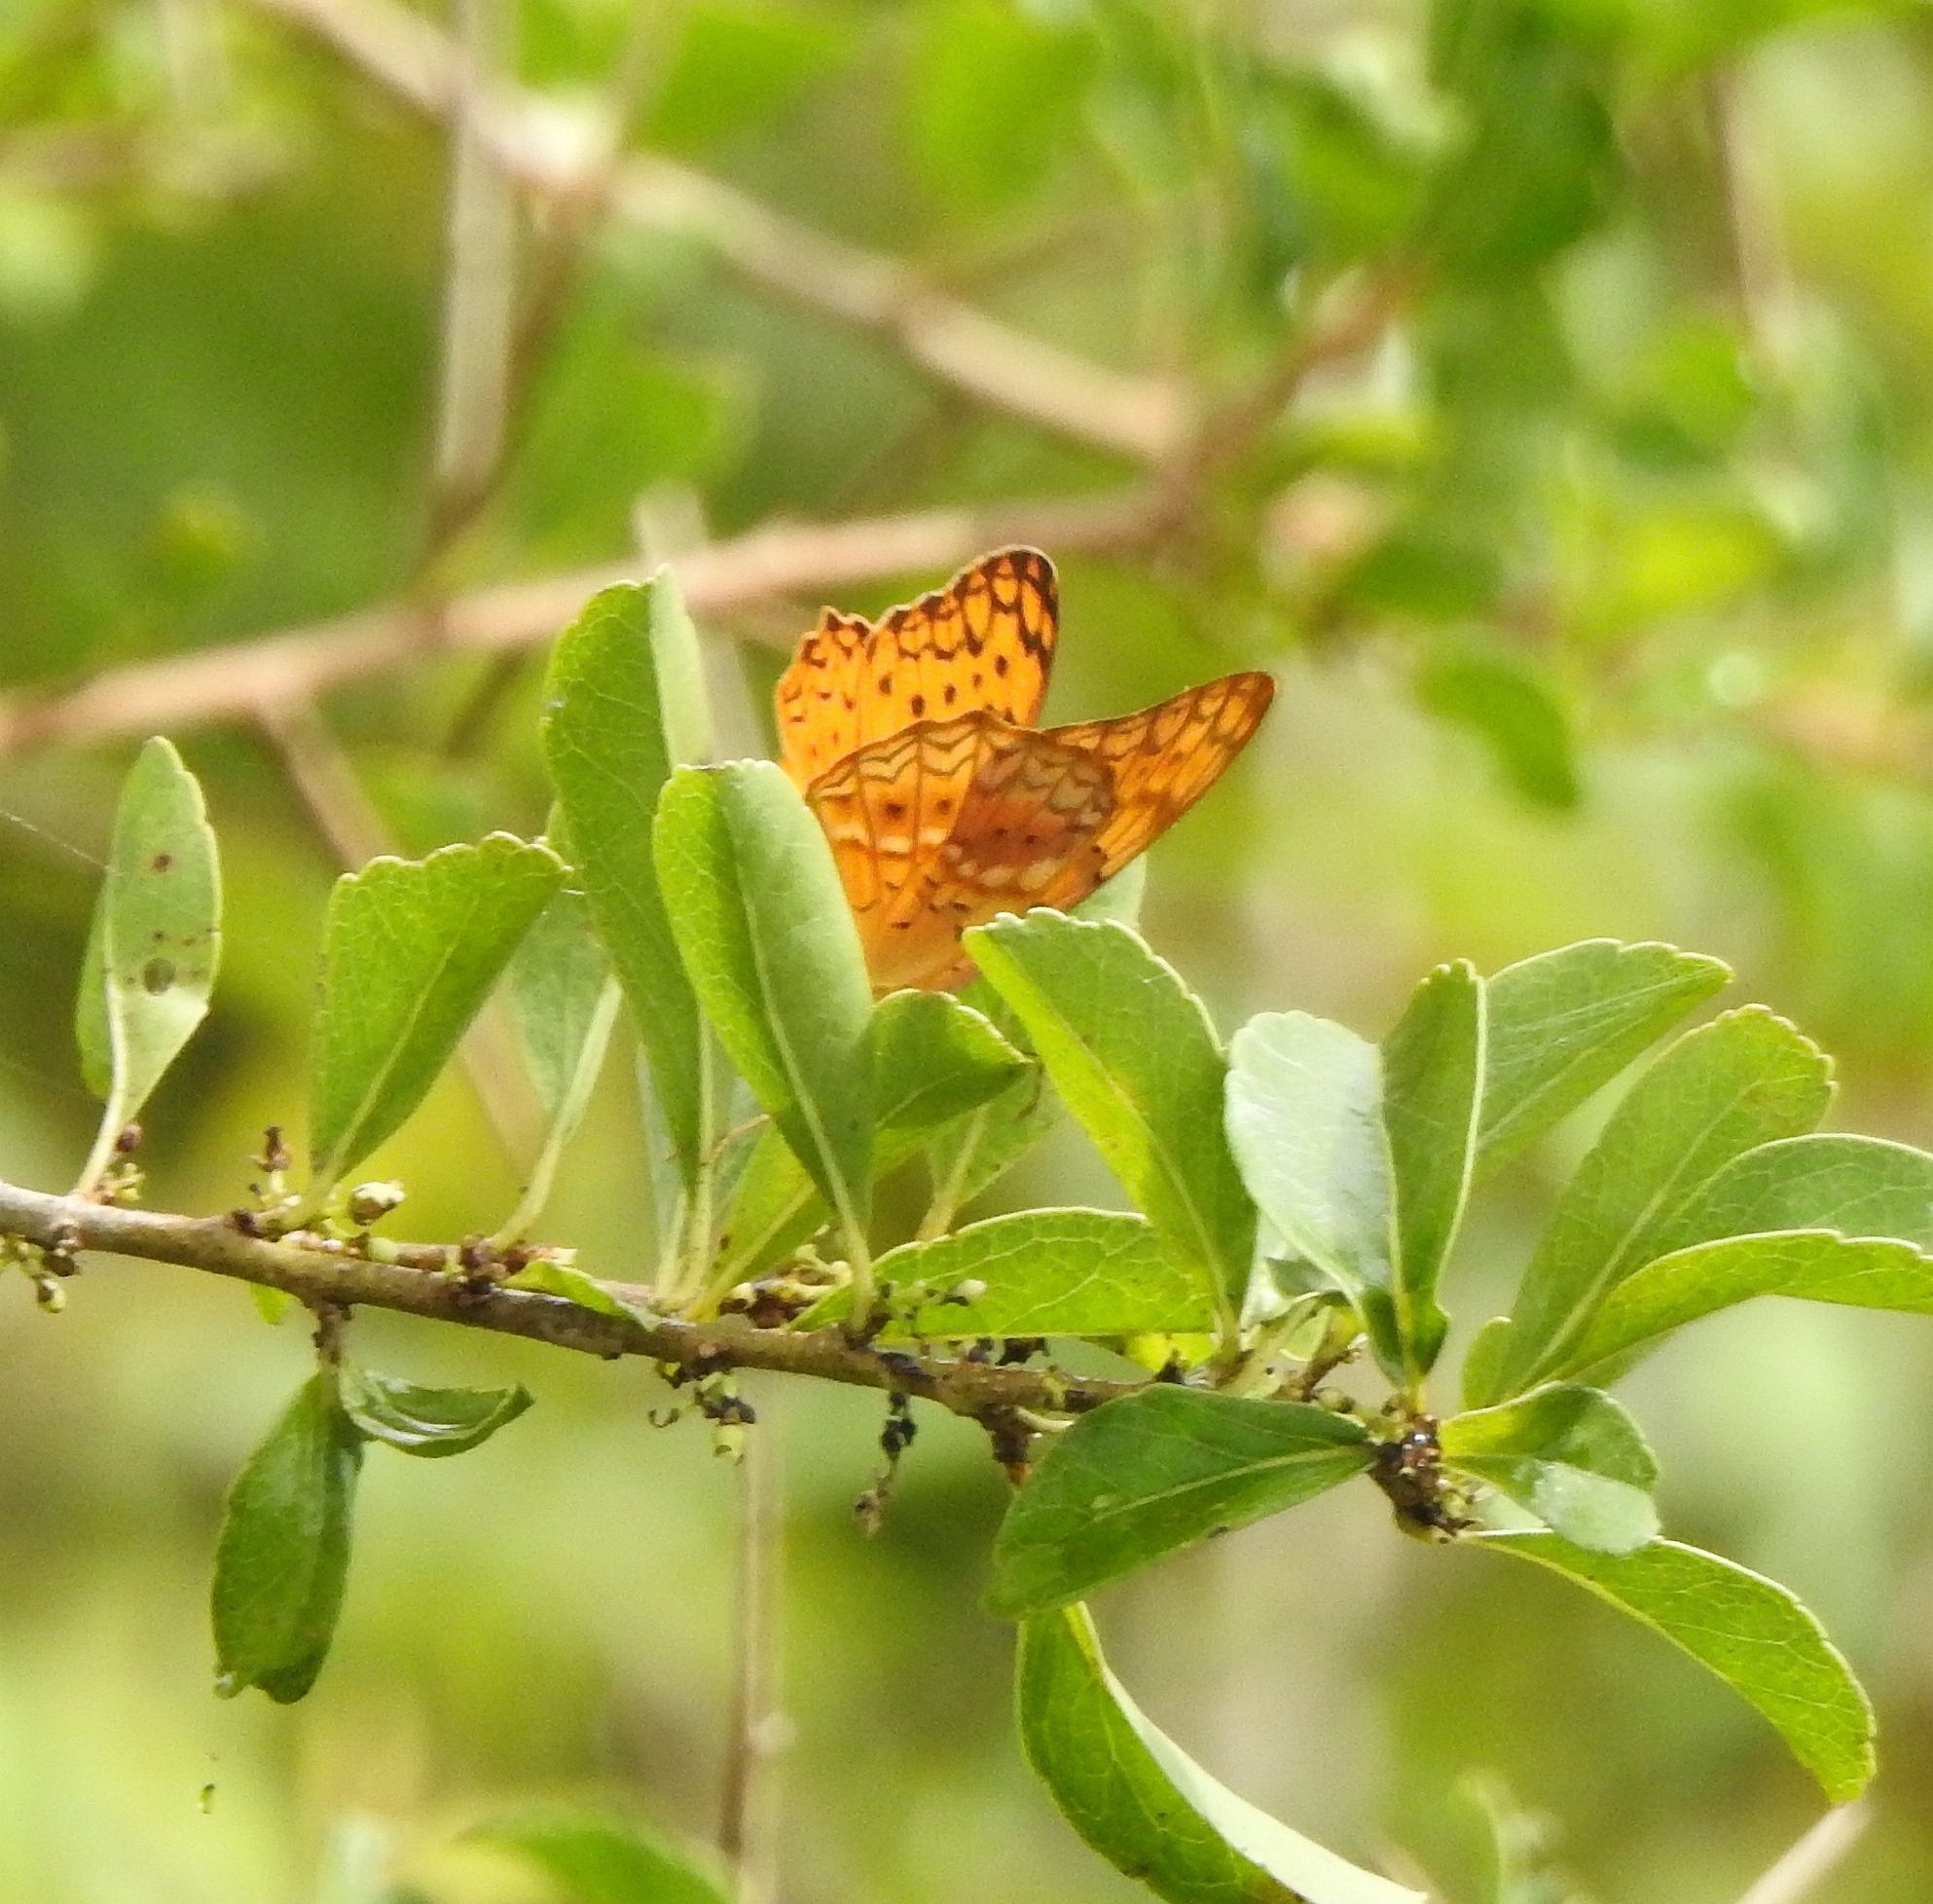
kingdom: Animalia
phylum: Arthropoda
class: Insecta
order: Lepidoptera
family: Nymphalidae
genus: Phalanta
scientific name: Phalanta phalantha
